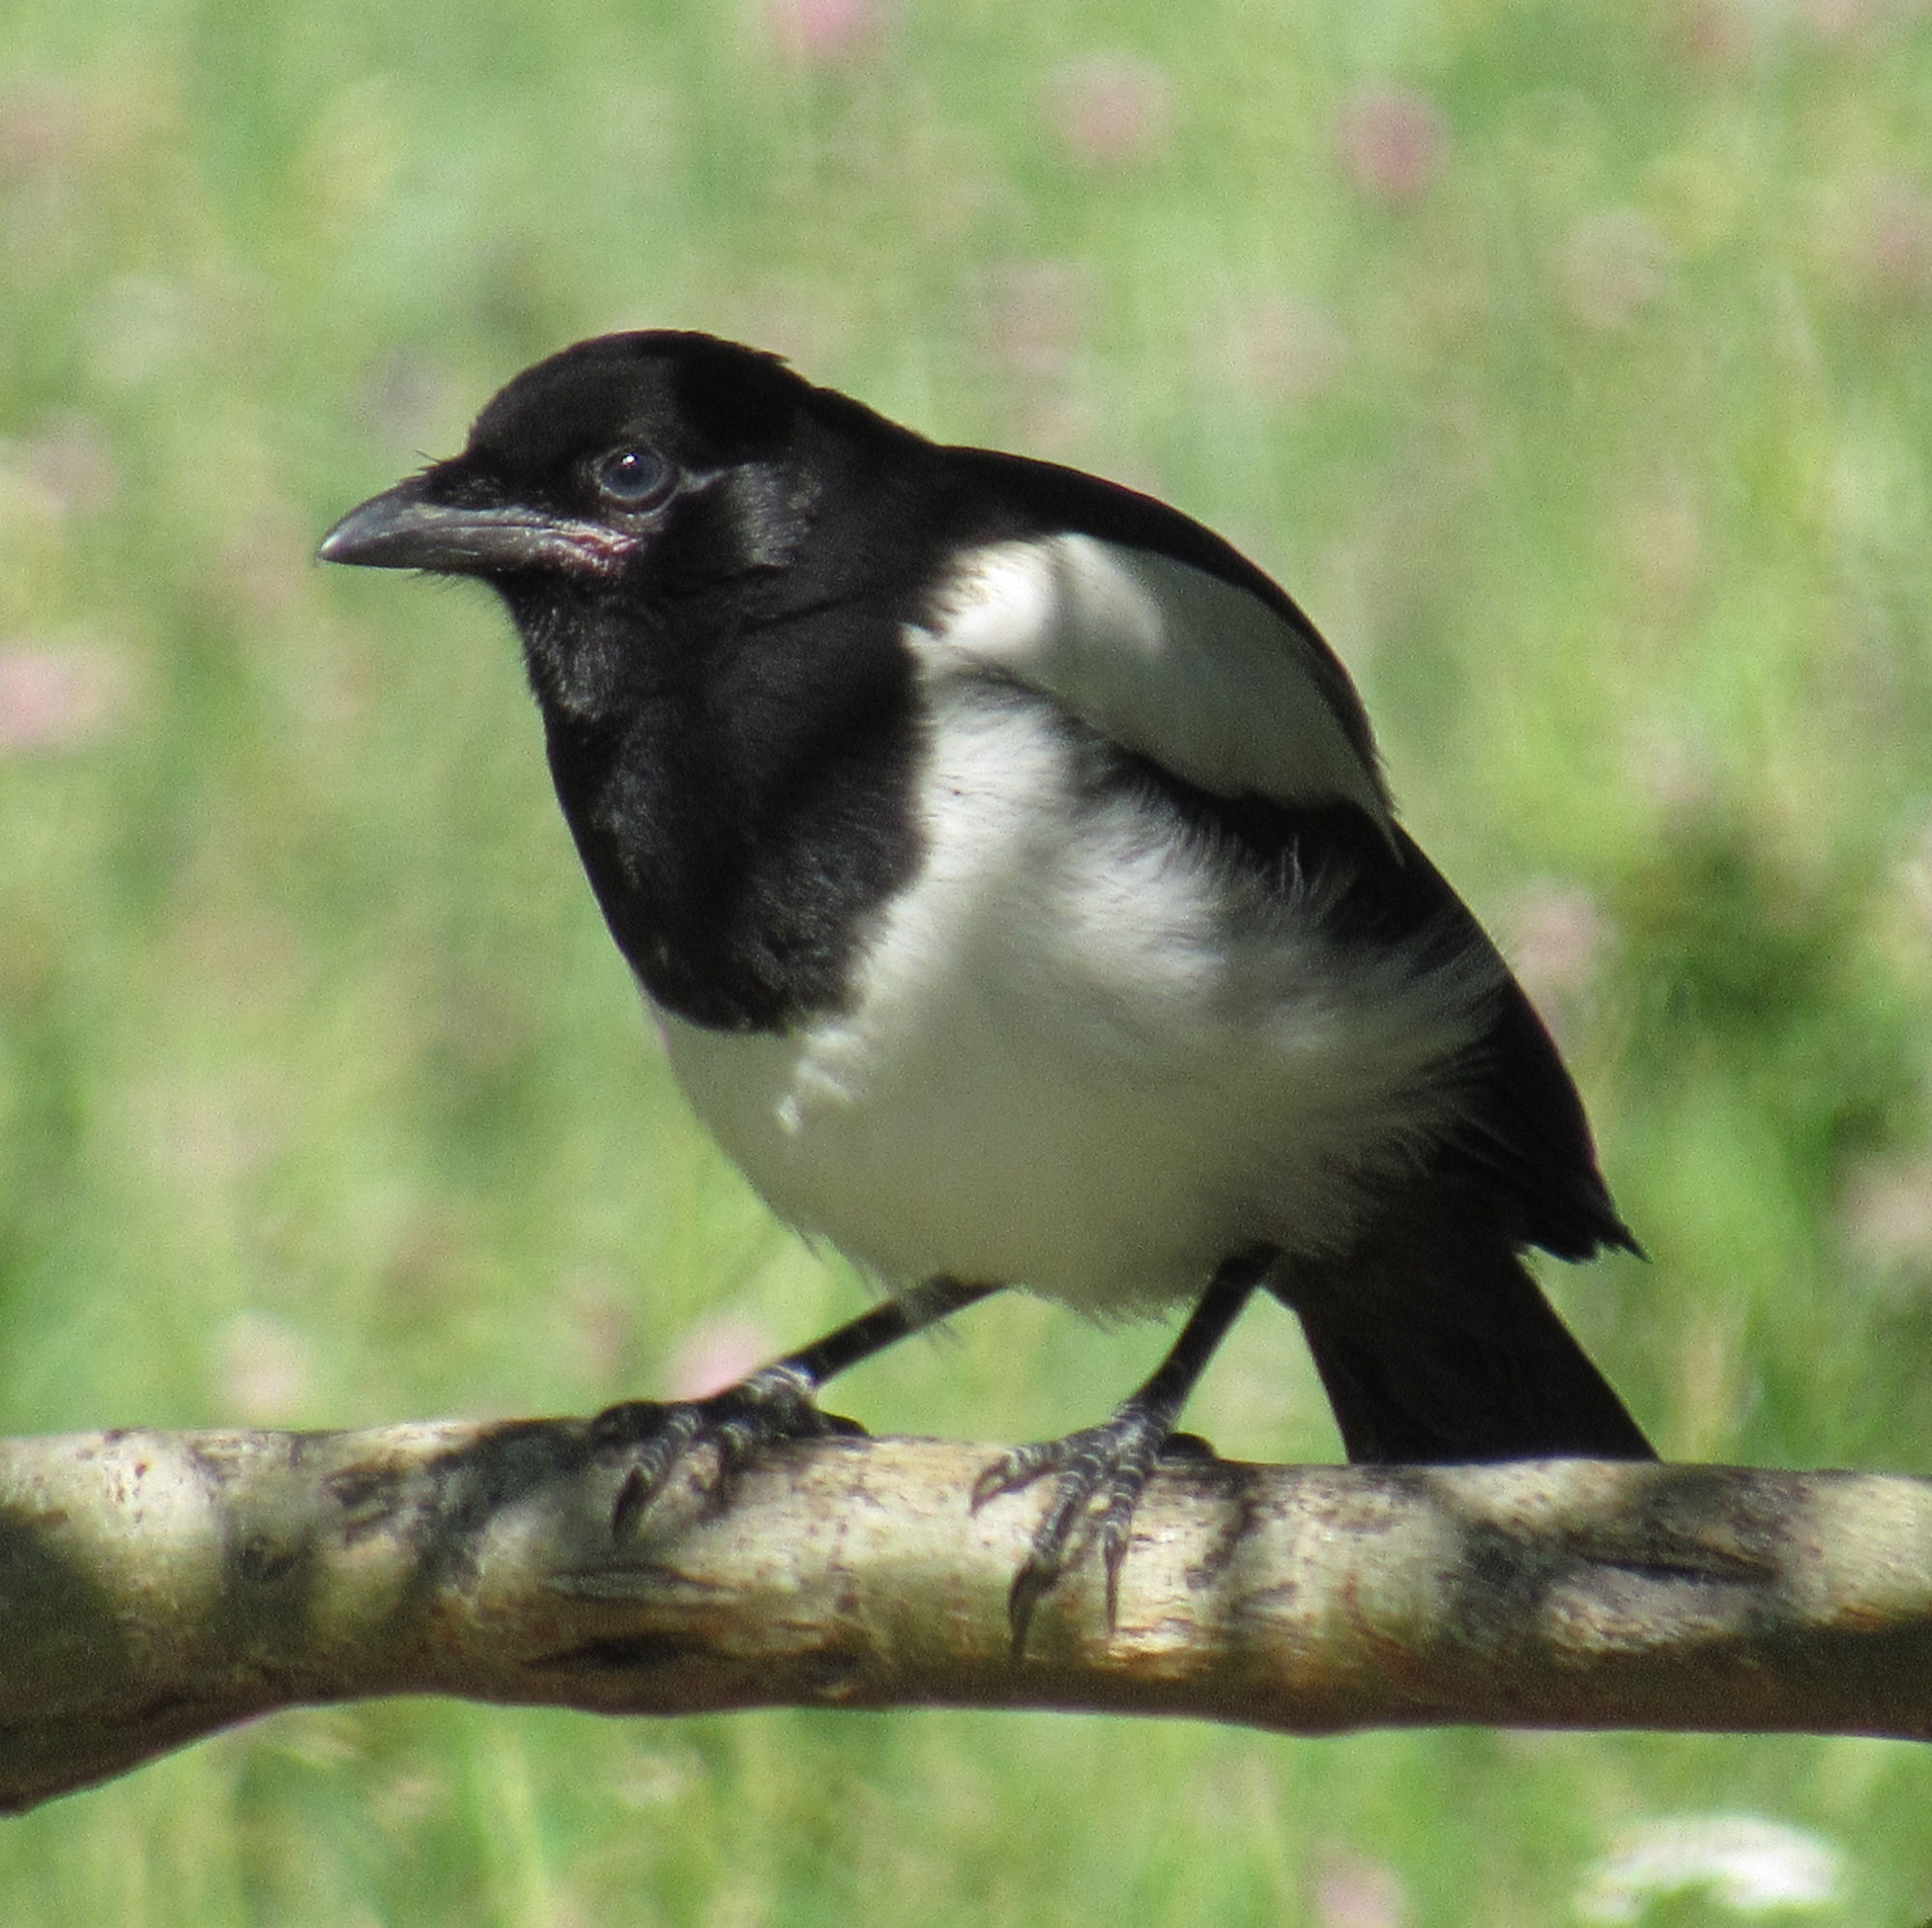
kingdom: Animalia
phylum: Chordata
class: Aves
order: Passeriformes
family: Corvidae
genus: Pica
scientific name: Pica hudsonia
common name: Black-billed magpie
